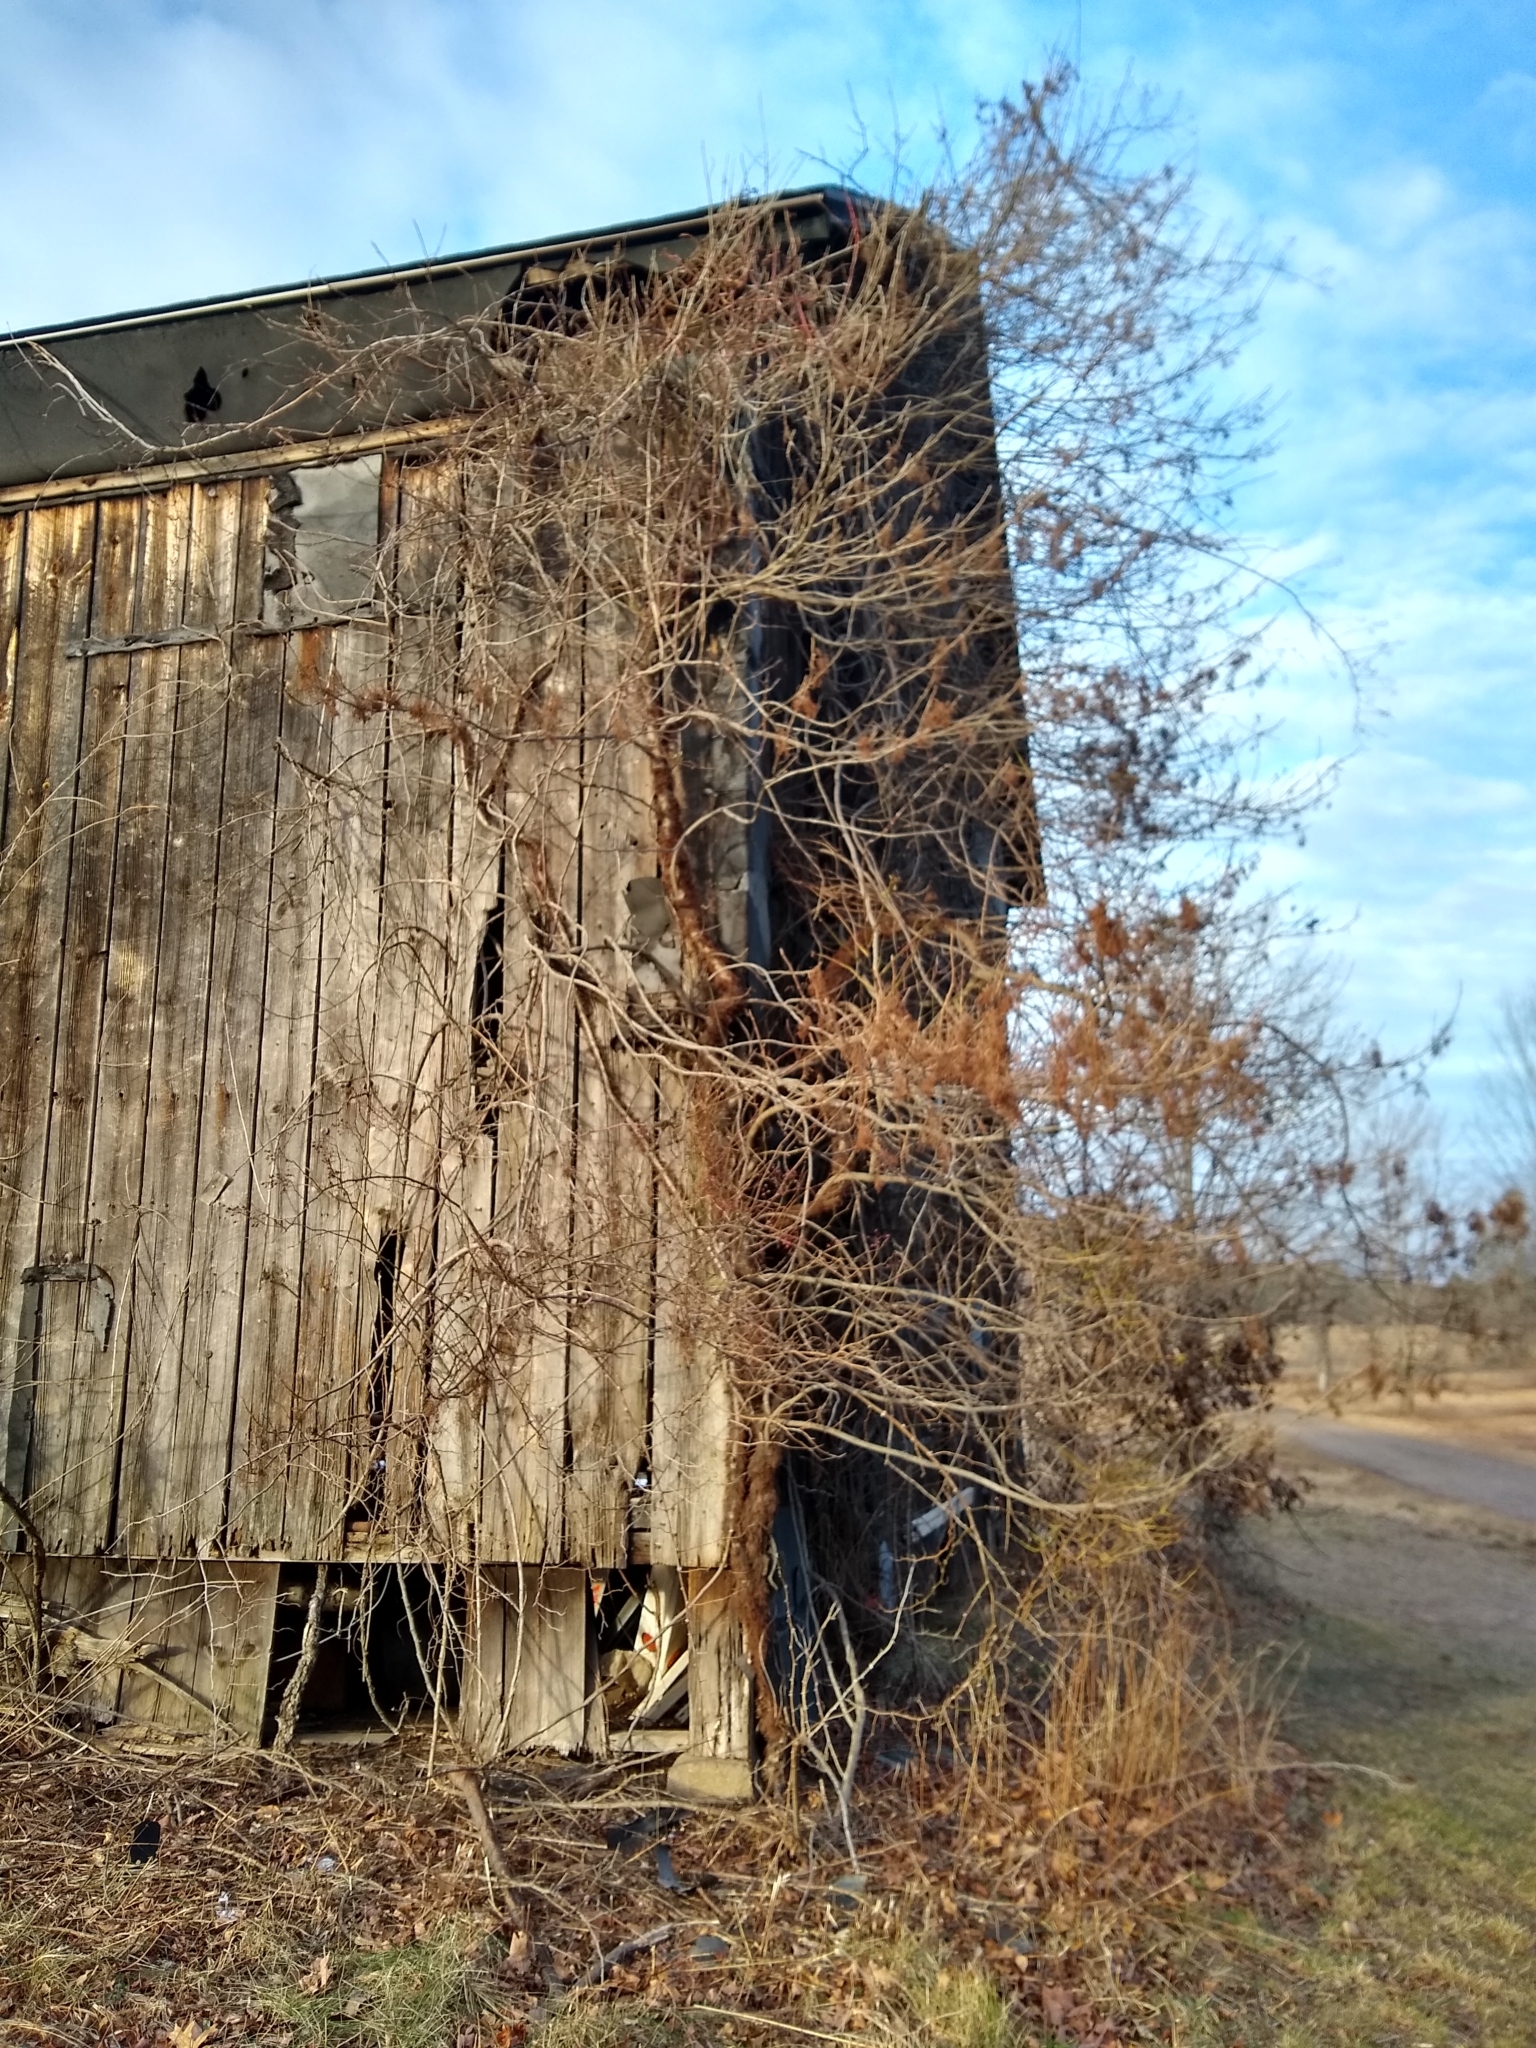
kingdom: Plantae
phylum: Tracheophyta
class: Magnoliopsida
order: Sapindales
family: Anacardiaceae
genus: Toxicodendron
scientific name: Toxicodendron radicans
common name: Poison ivy
